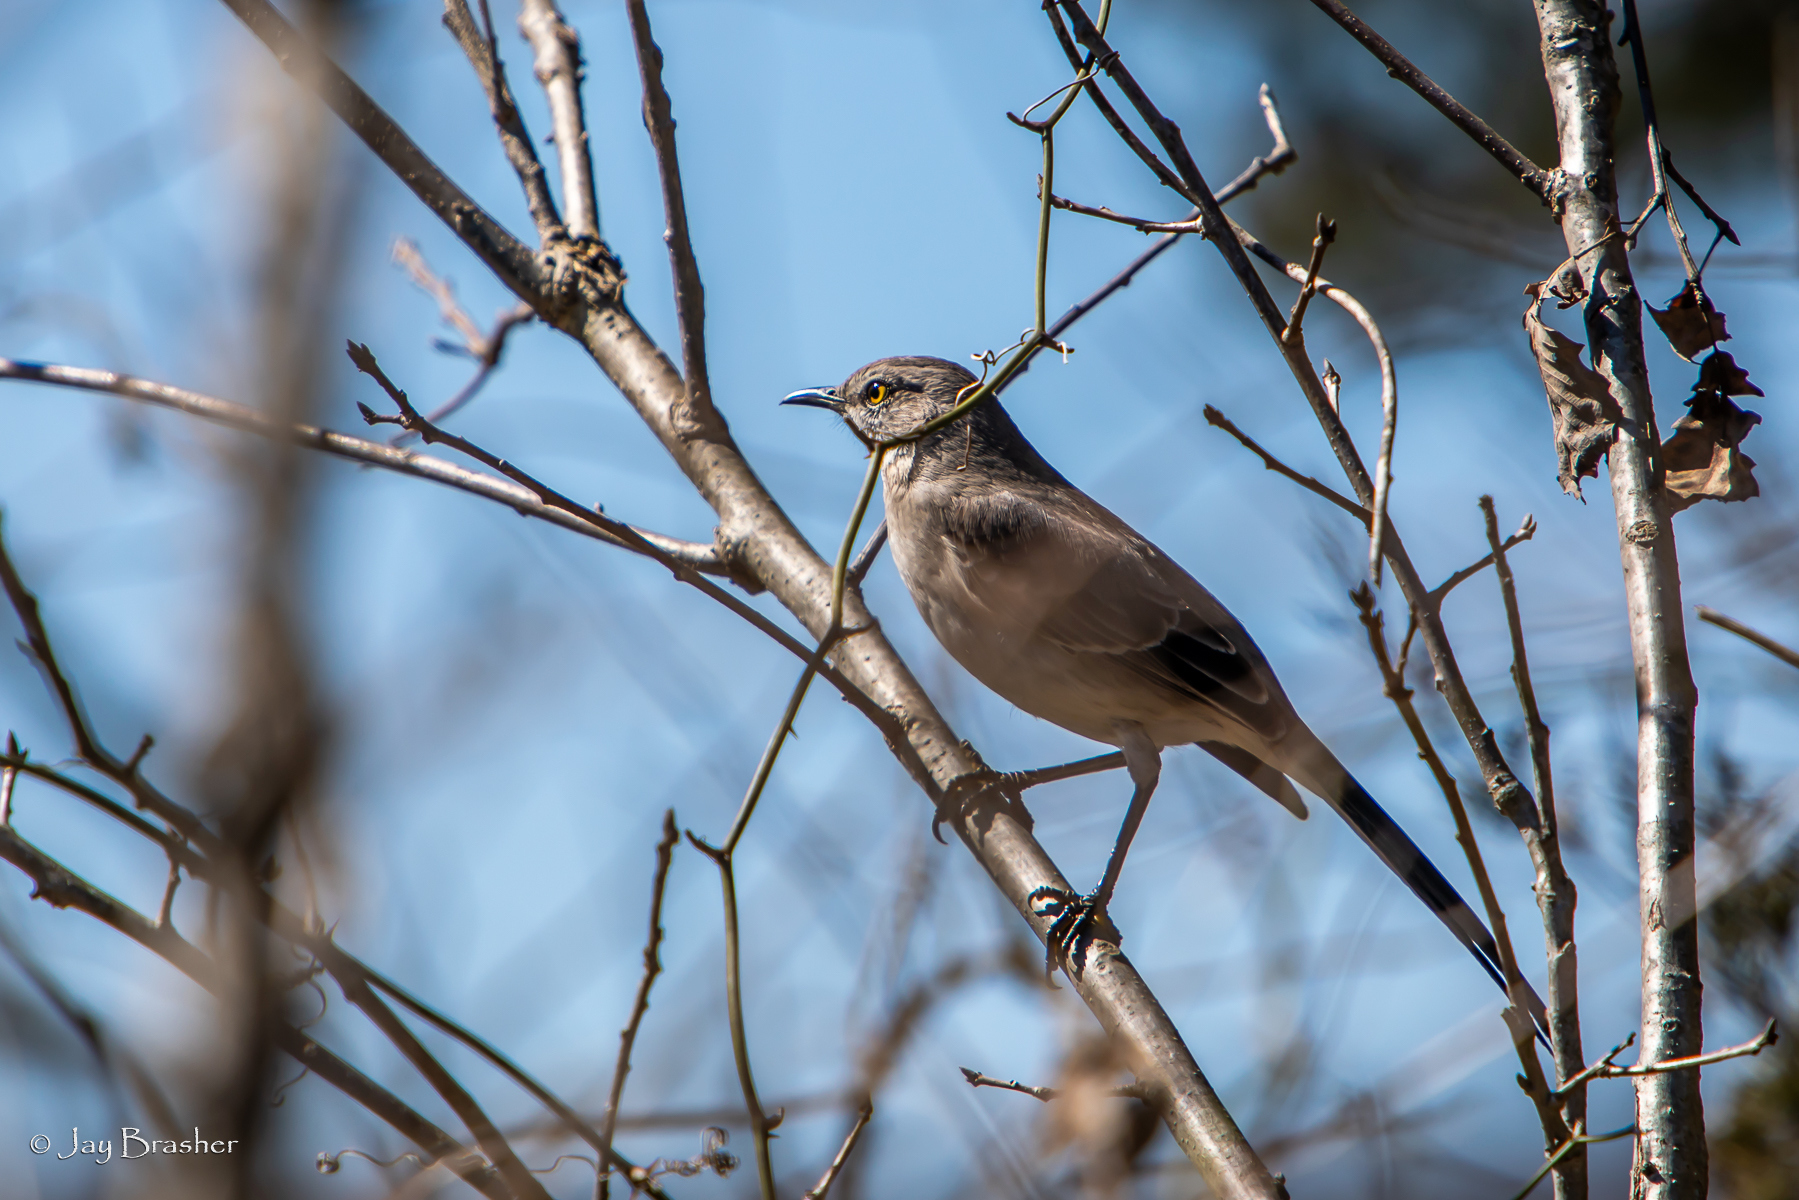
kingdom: Animalia
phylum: Chordata
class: Aves
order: Passeriformes
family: Mimidae
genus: Mimus
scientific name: Mimus polyglottos
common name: Northern mockingbird
